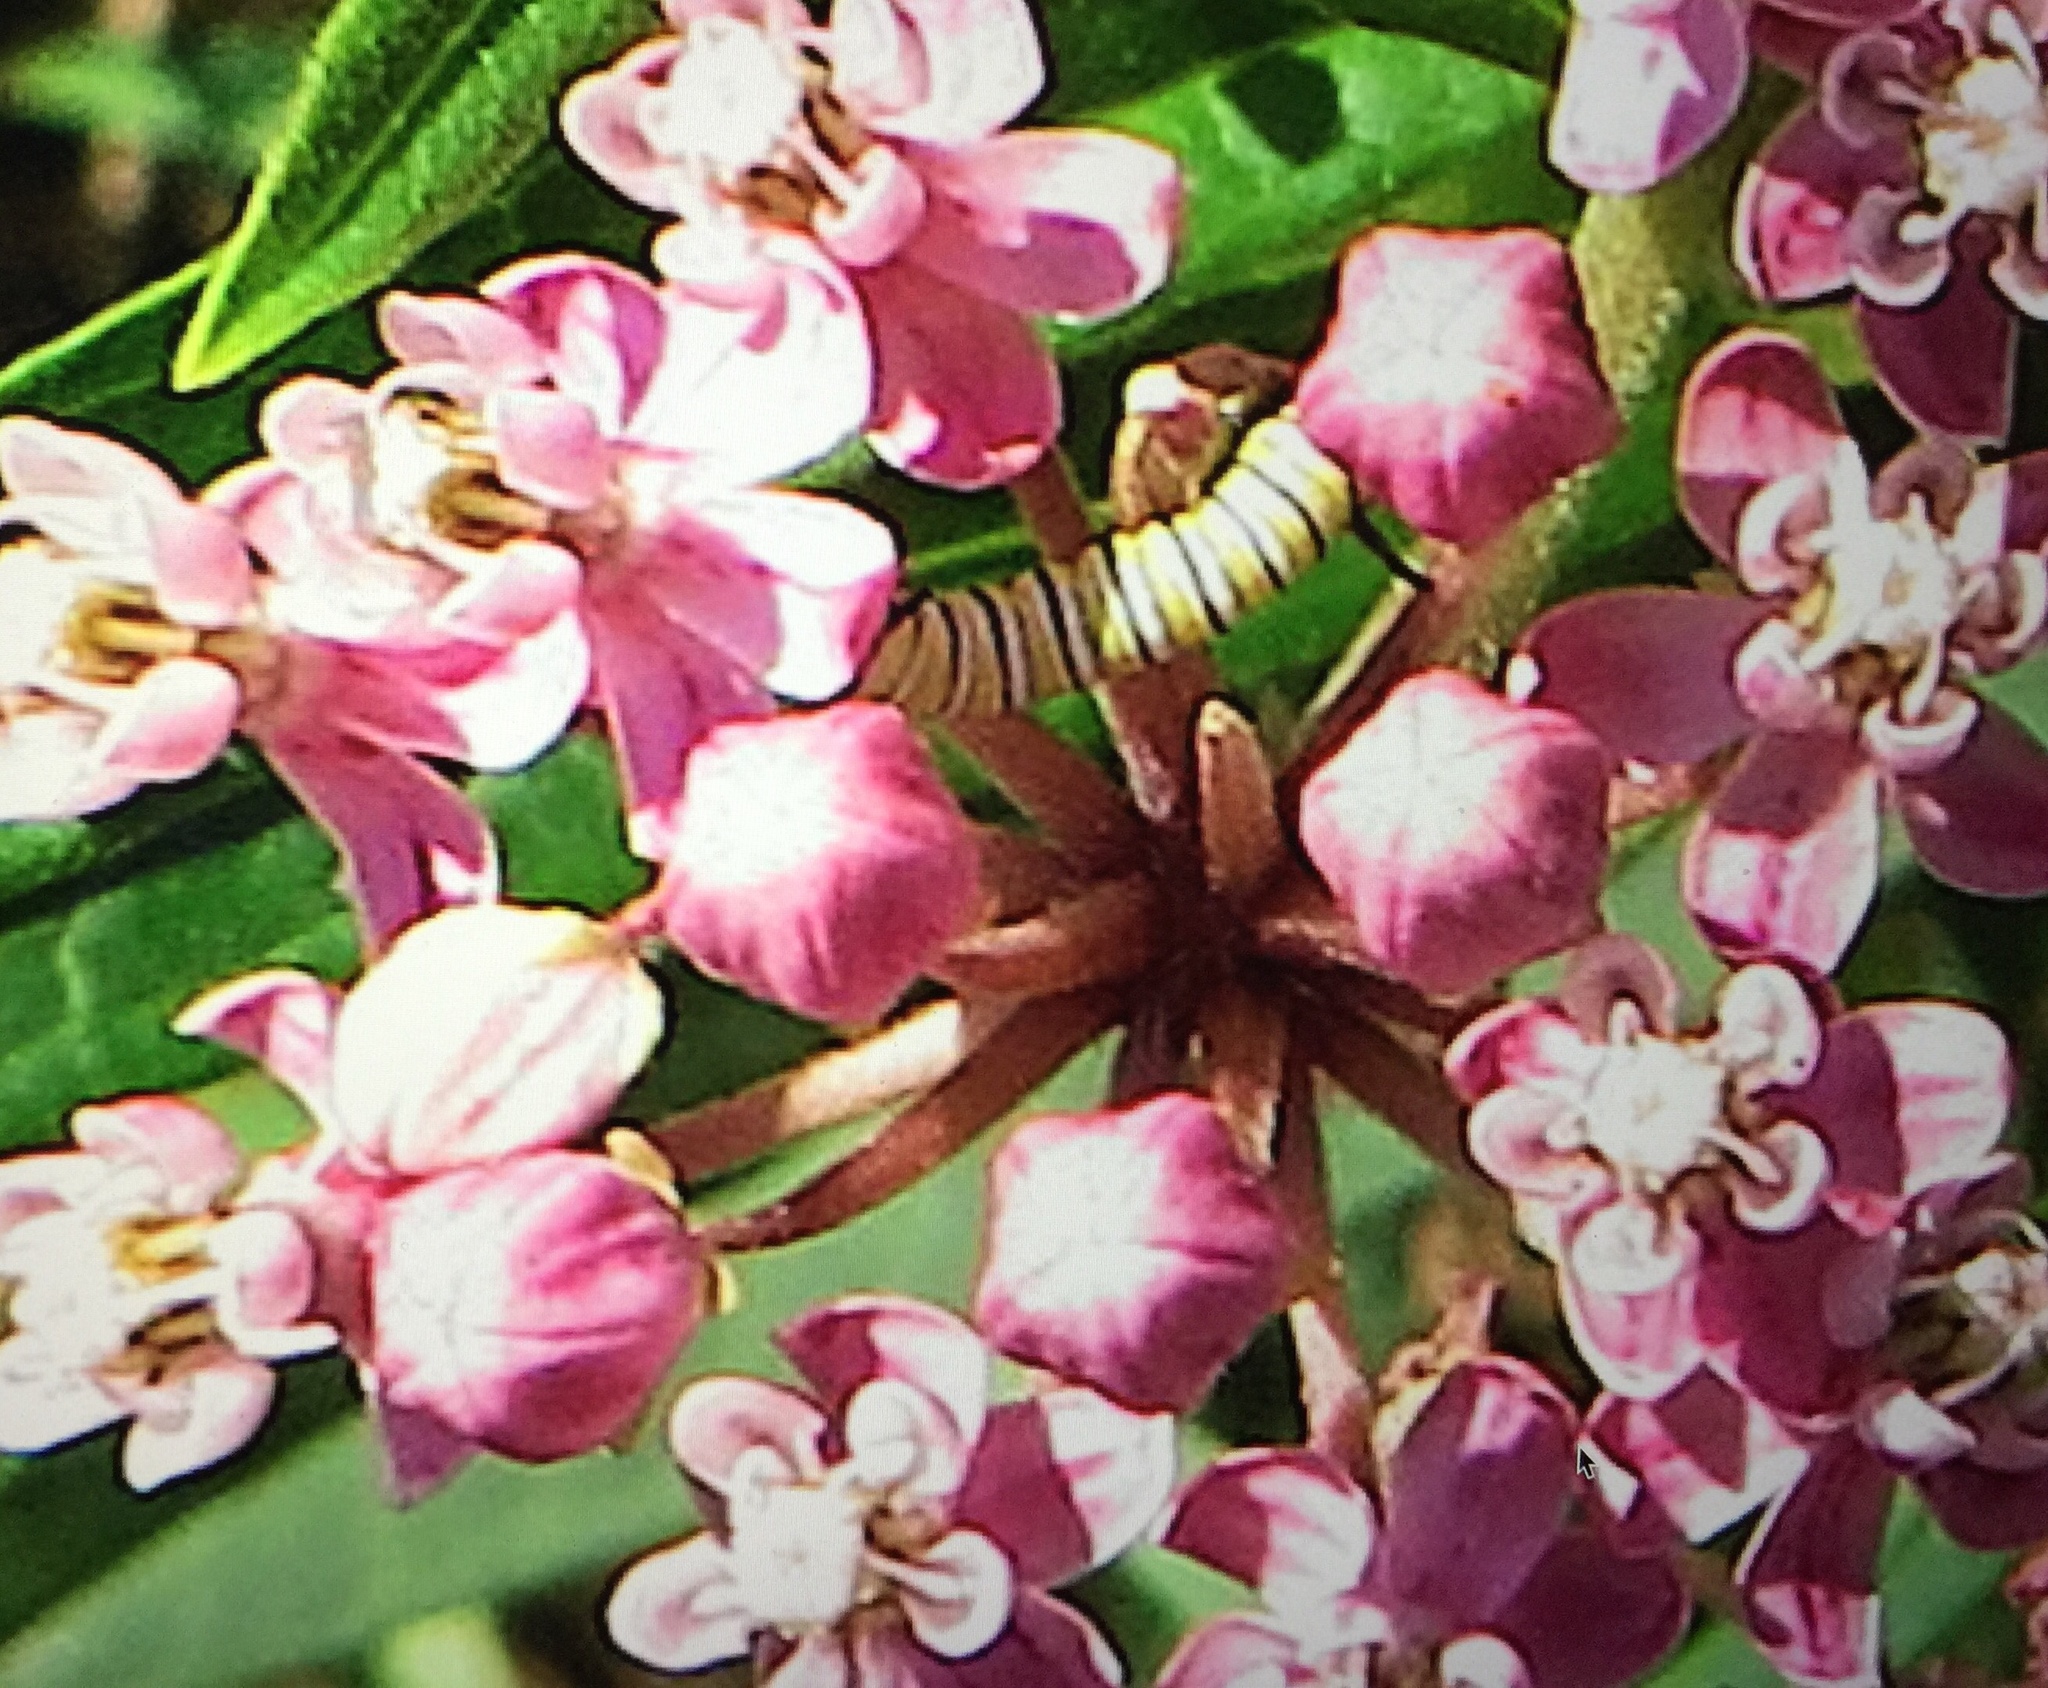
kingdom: Animalia
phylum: Arthropoda
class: Insecta
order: Lepidoptera
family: Nymphalidae
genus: Danaus
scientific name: Danaus plexippus
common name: Monarch
